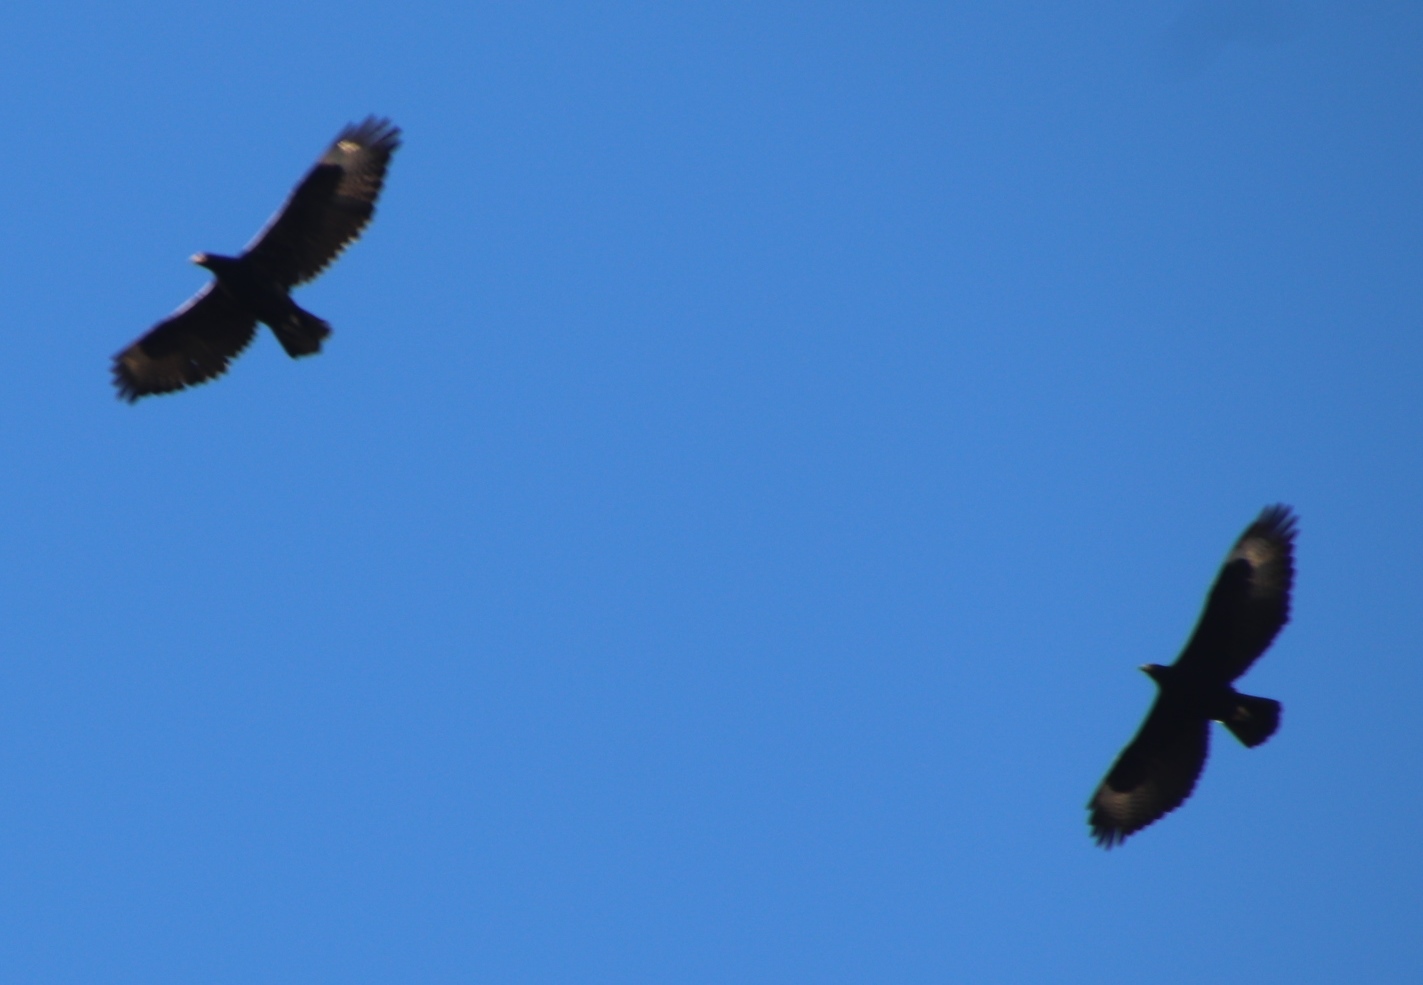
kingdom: Animalia
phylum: Chordata
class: Aves
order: Accipitriformes
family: Accipitridae
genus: Aquila
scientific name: Aquila verreauxii
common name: Verreaux's eagle
